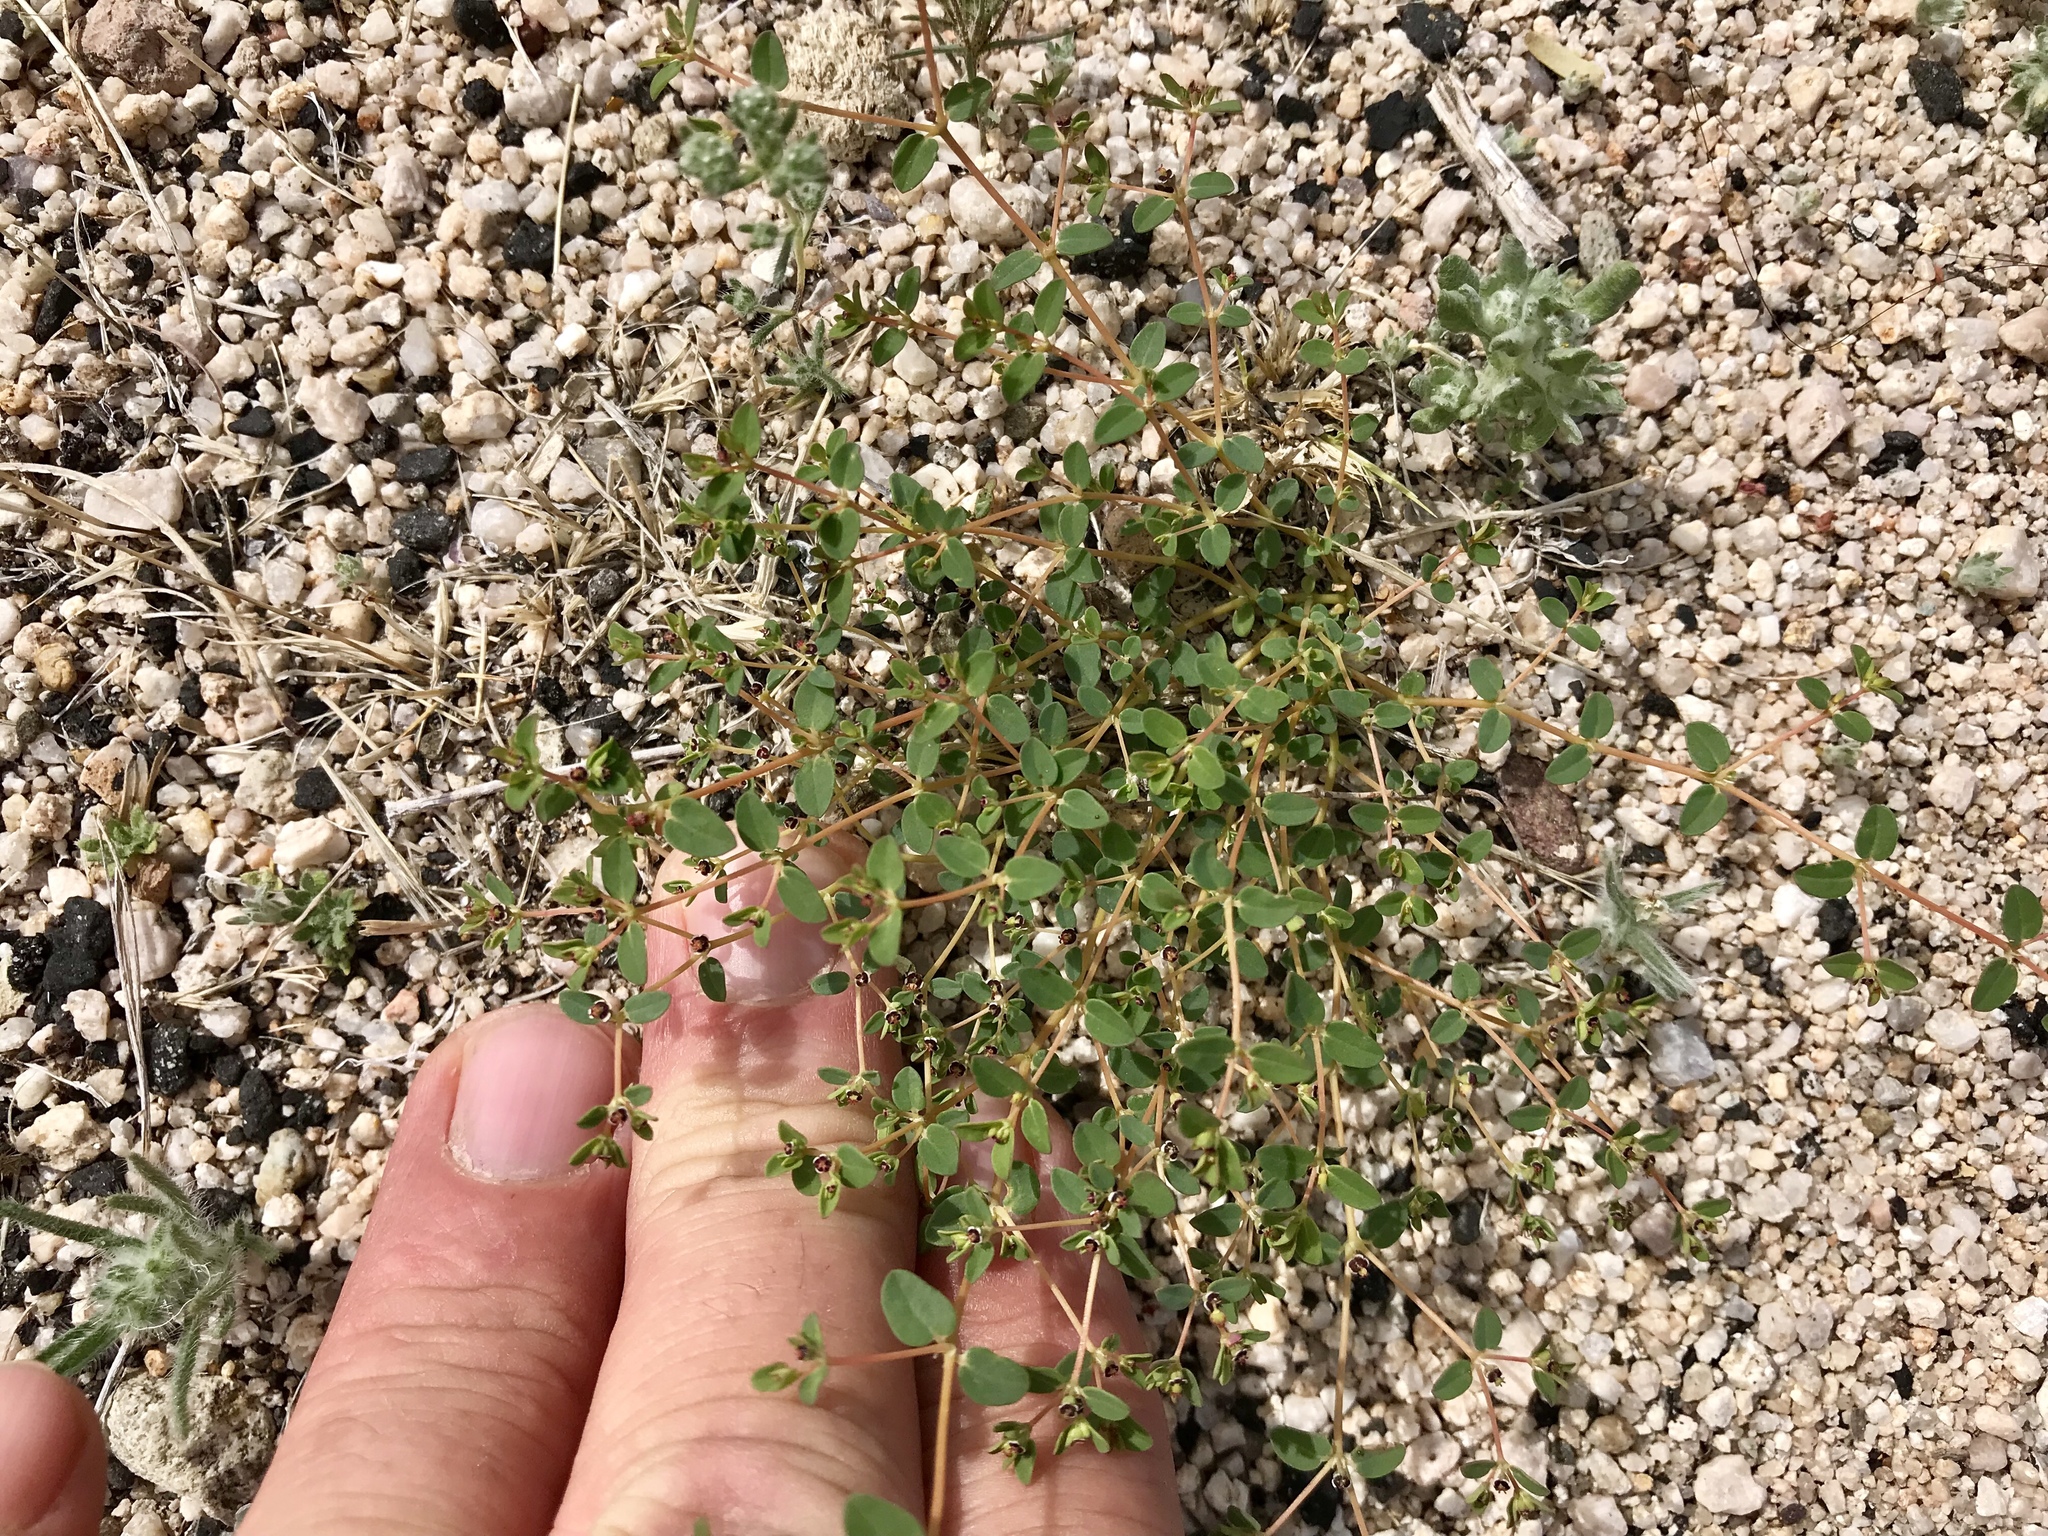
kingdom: Plantae
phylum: Tracheophyta
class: Magnoliopsida
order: Malpighiales
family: Euphorbiaceae
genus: Euphorbia
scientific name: Euphorbia polycarpa
